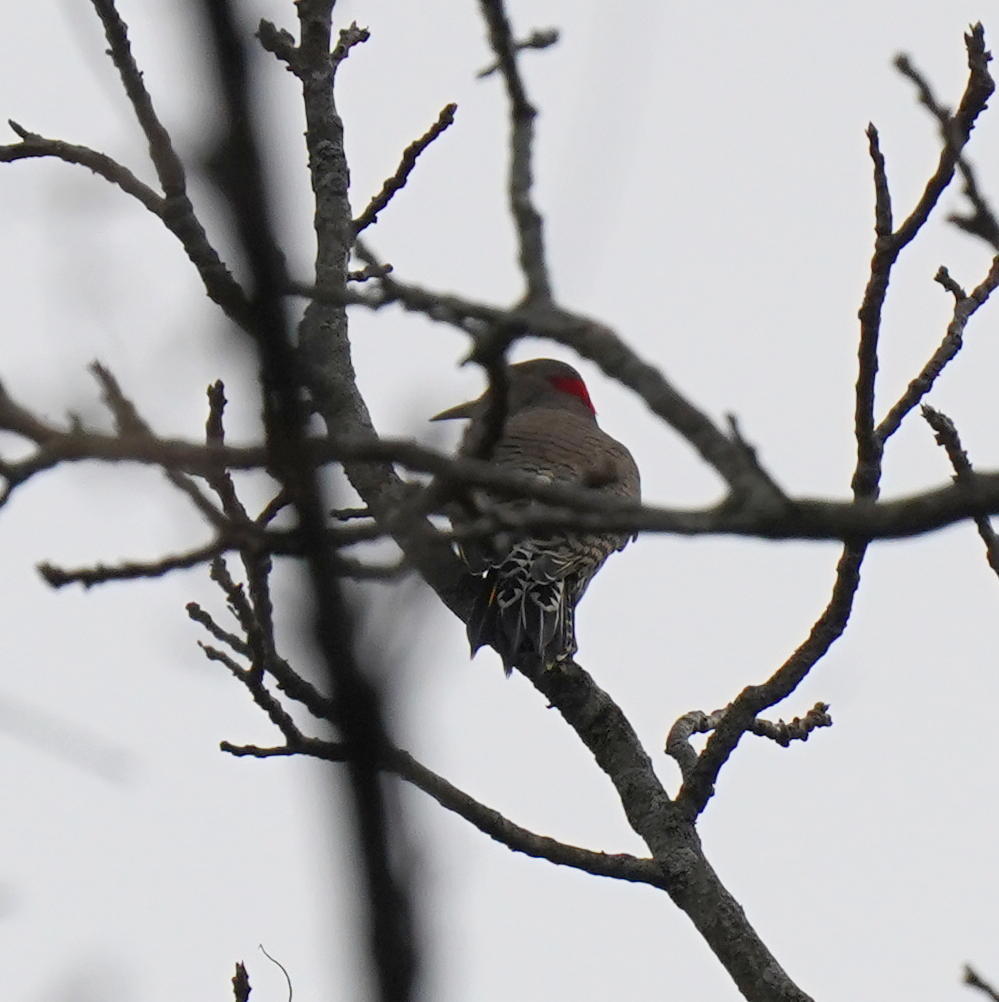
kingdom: Animalia
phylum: Chordata
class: Aves
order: Piciformes
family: Picidae
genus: Colaptes
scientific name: Colaptes auratus
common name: Northern flicker
